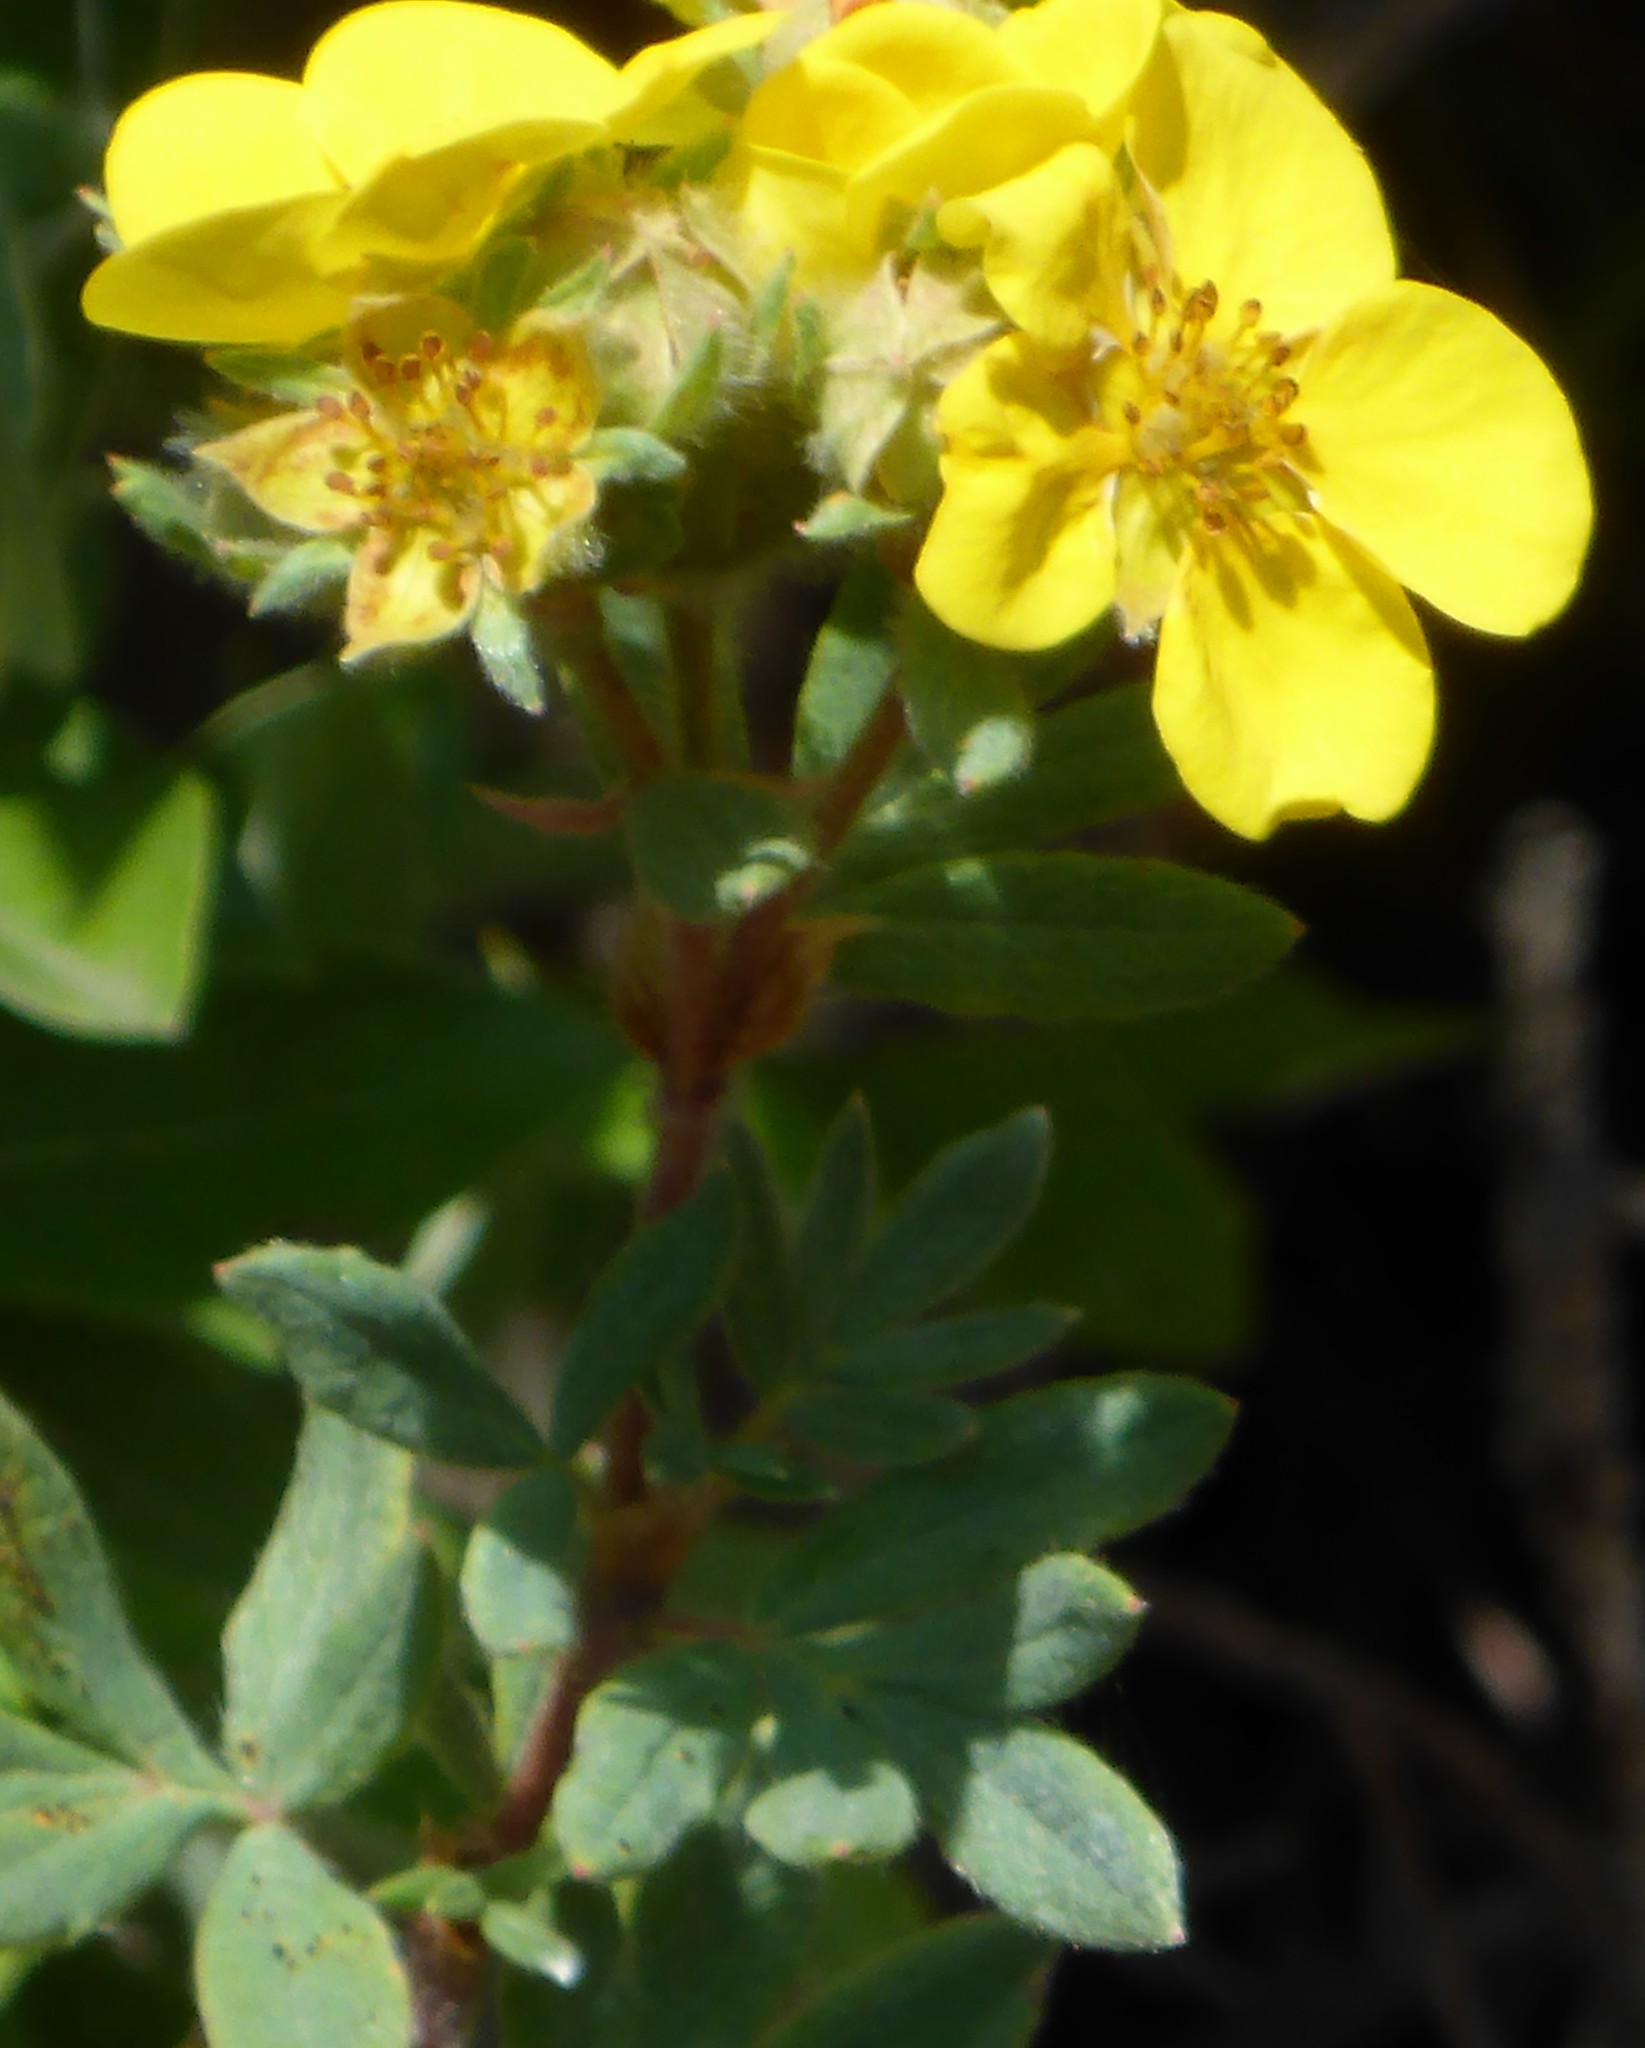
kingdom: Plantae
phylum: Tracheophyta
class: Magnoliopsida
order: Rosales
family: Rosaceae
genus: Dasiphora
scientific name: Dasiphora fruticosa
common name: Shrubby cinquefoil
